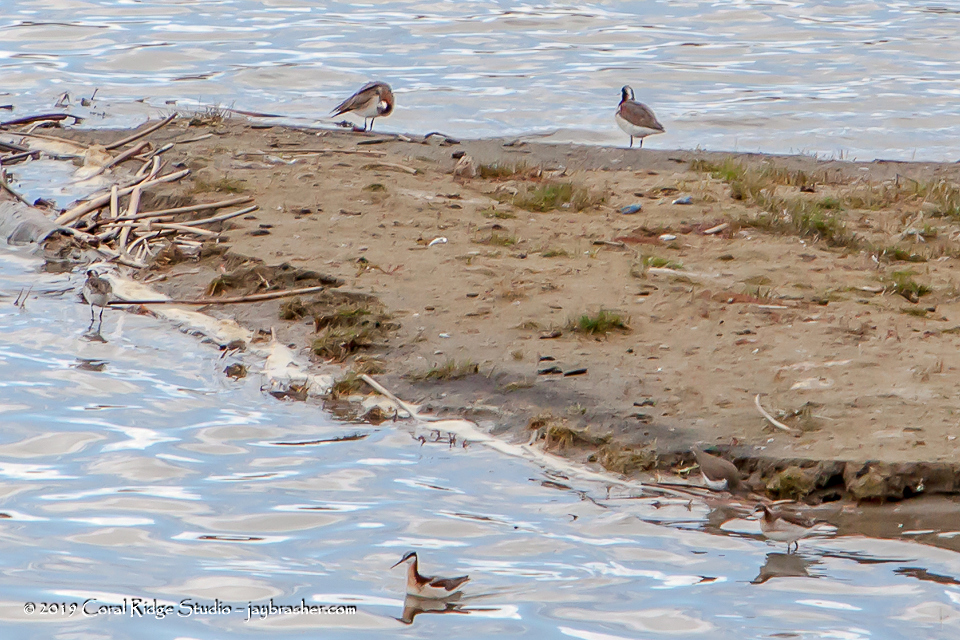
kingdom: Animalia
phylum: Chordata
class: Aves
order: Charadriiformes
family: Scolopacidae
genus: Phalaropus
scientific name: Phalaropus tricolor
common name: Wilson's phalarope
